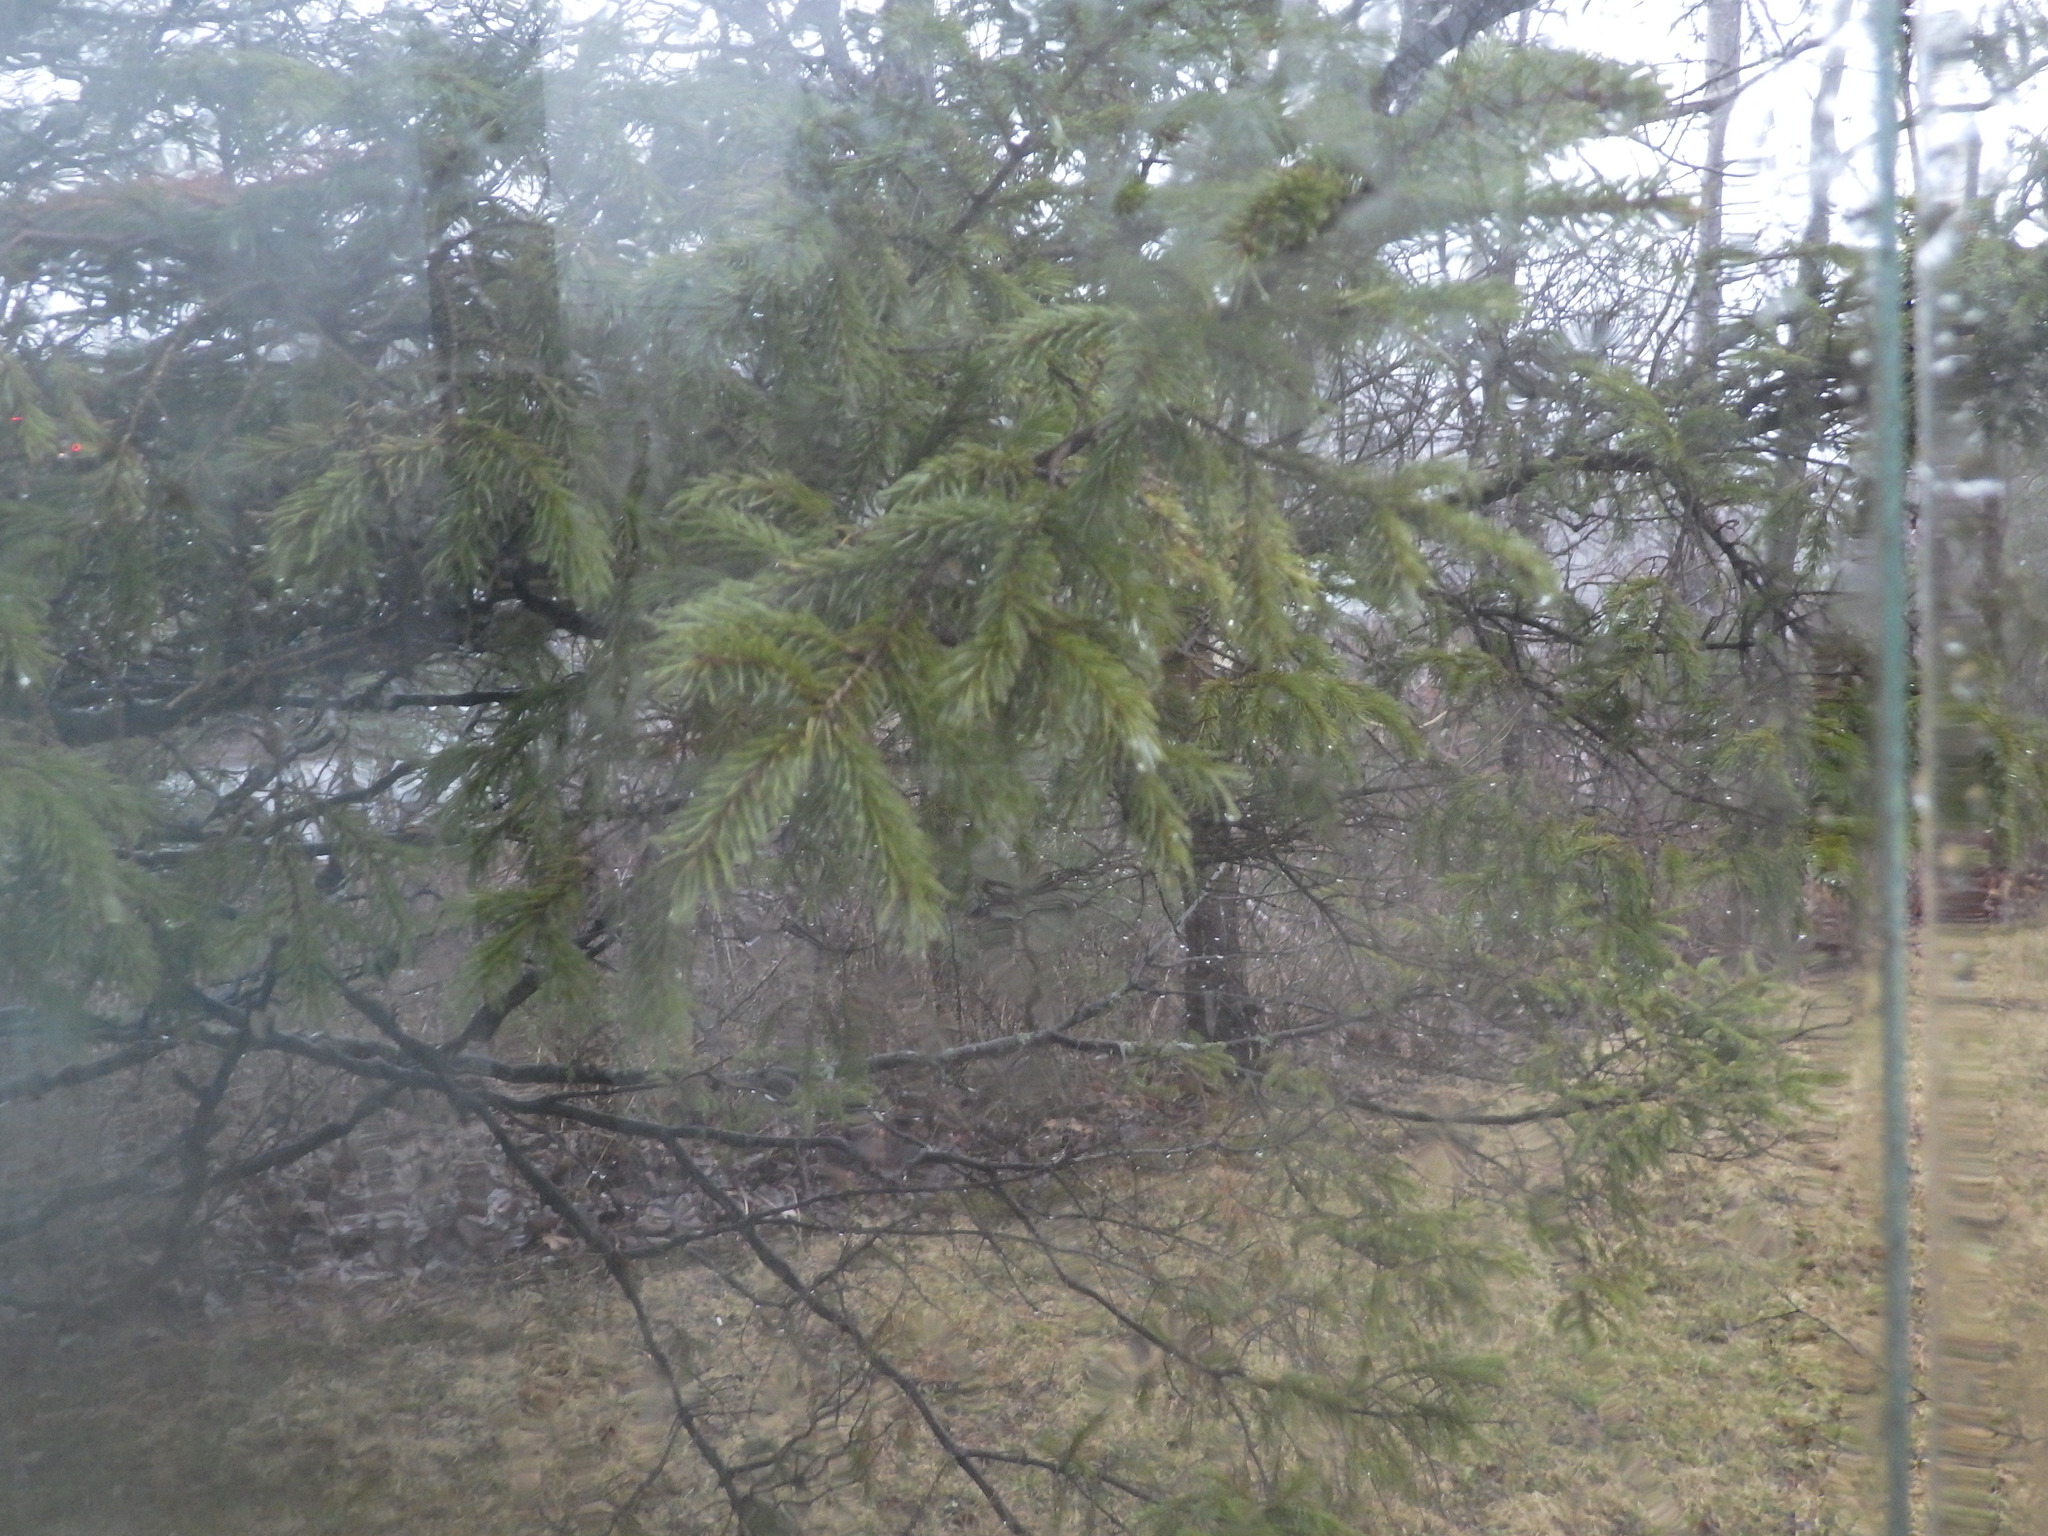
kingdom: Plantae
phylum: Tracheophyta
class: Pinopsida
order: Pinales
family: Pinaceae
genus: Picea
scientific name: Picea rubens
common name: Red spruce
